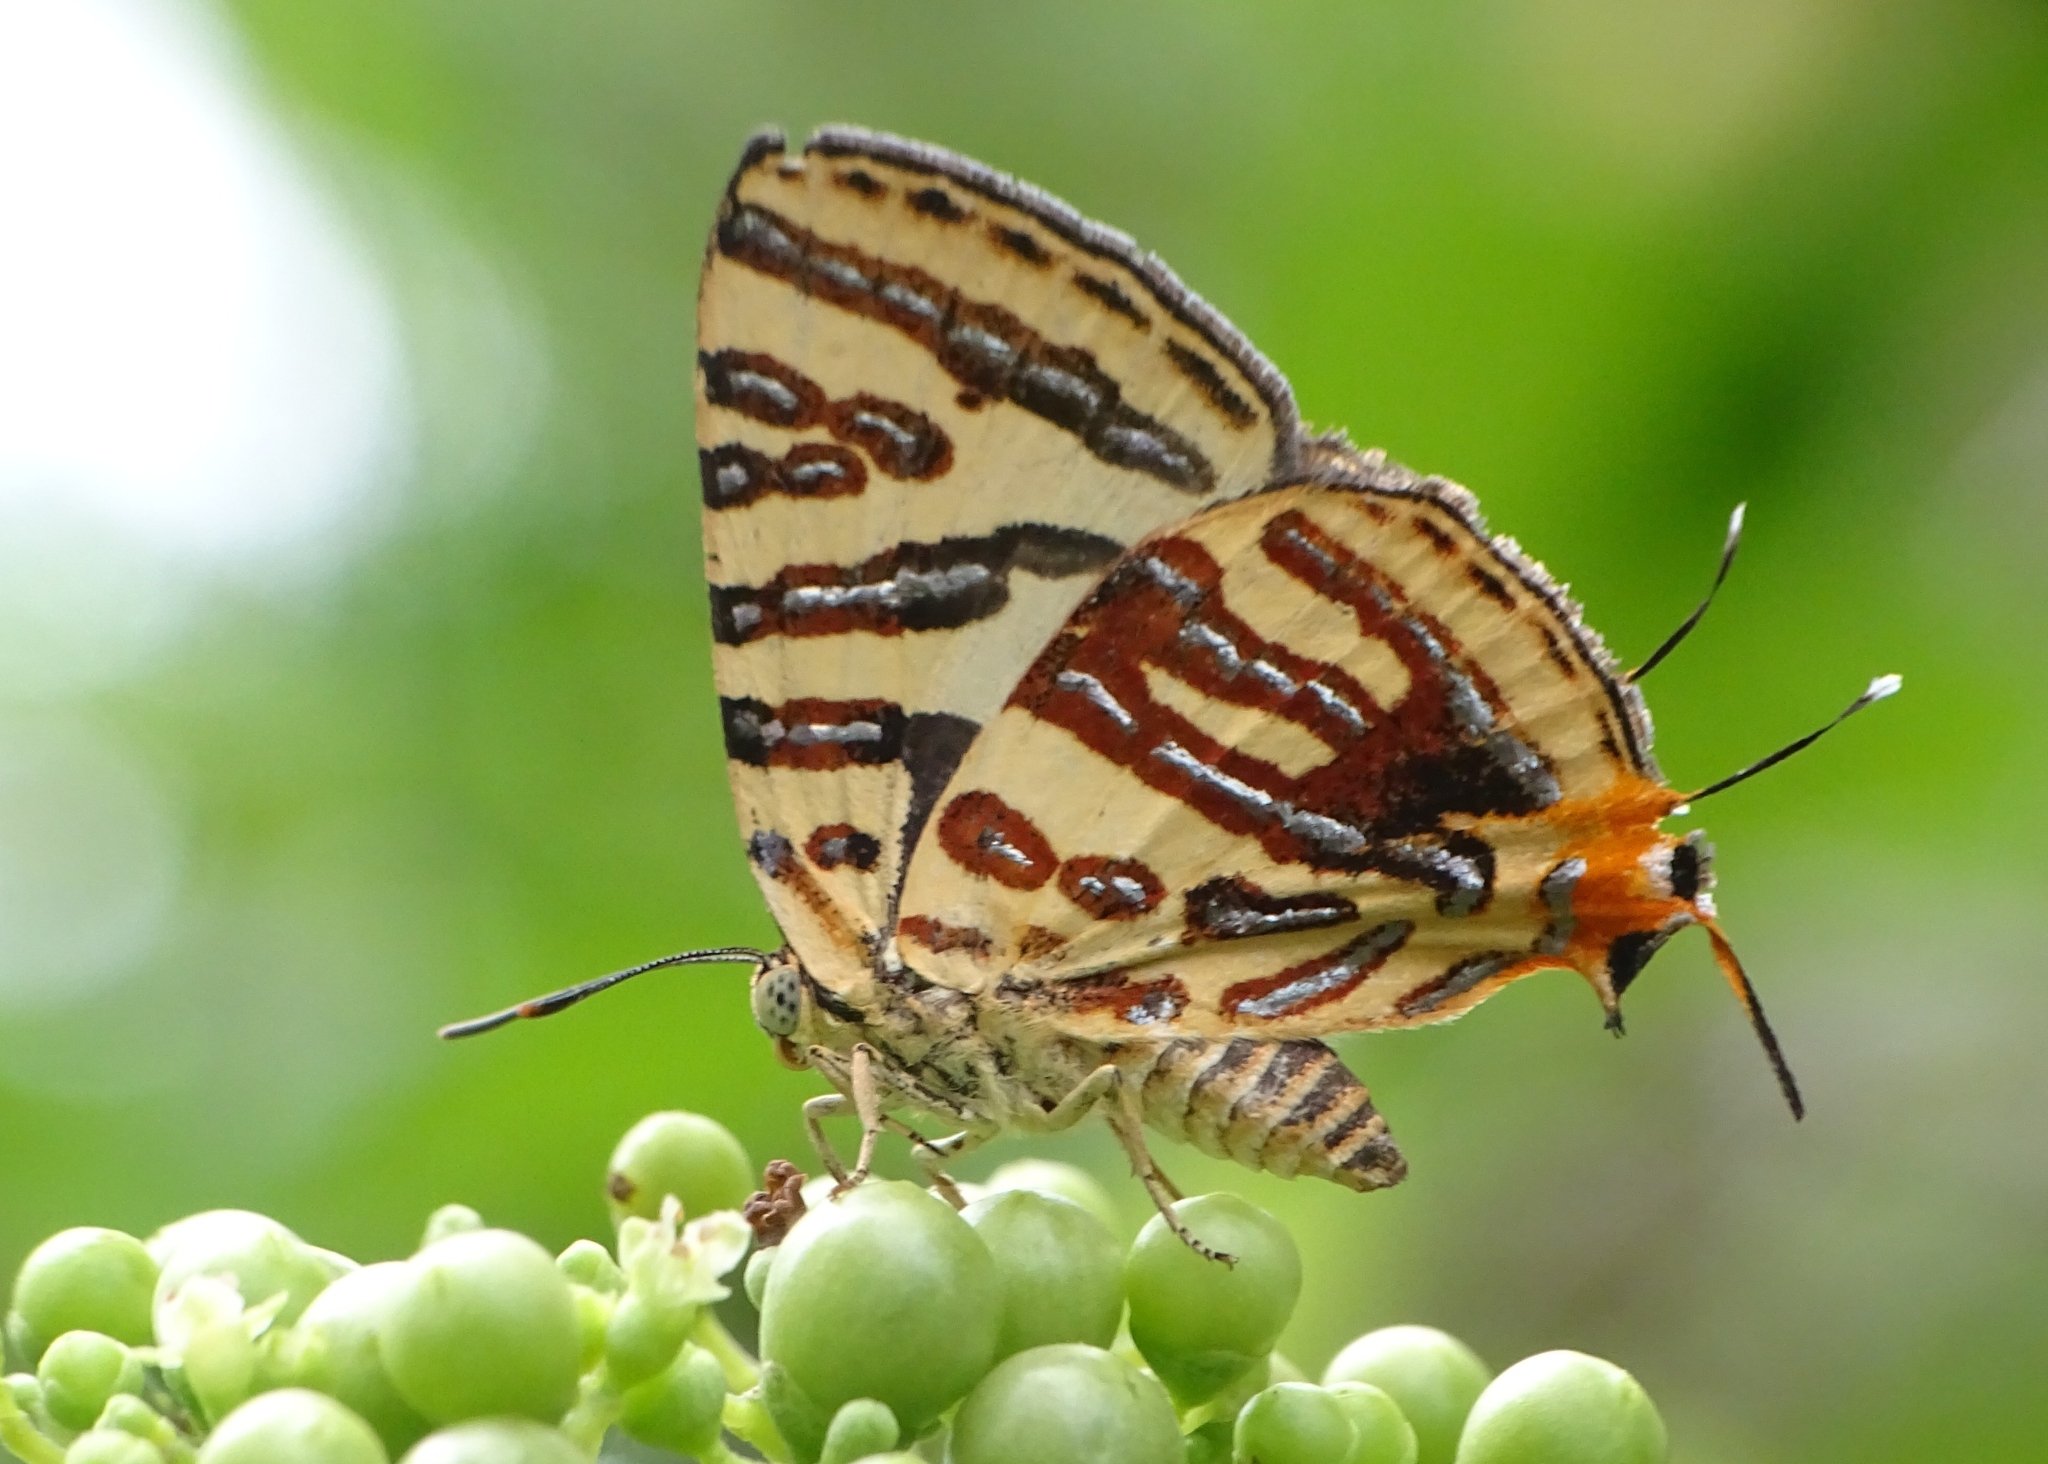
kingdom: Animalia
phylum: Arthropoda
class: Insecta
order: Lepidoptera
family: Lycaenidae
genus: Cigaritis
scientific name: Cigaritis lohita
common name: Long-banded silverline
